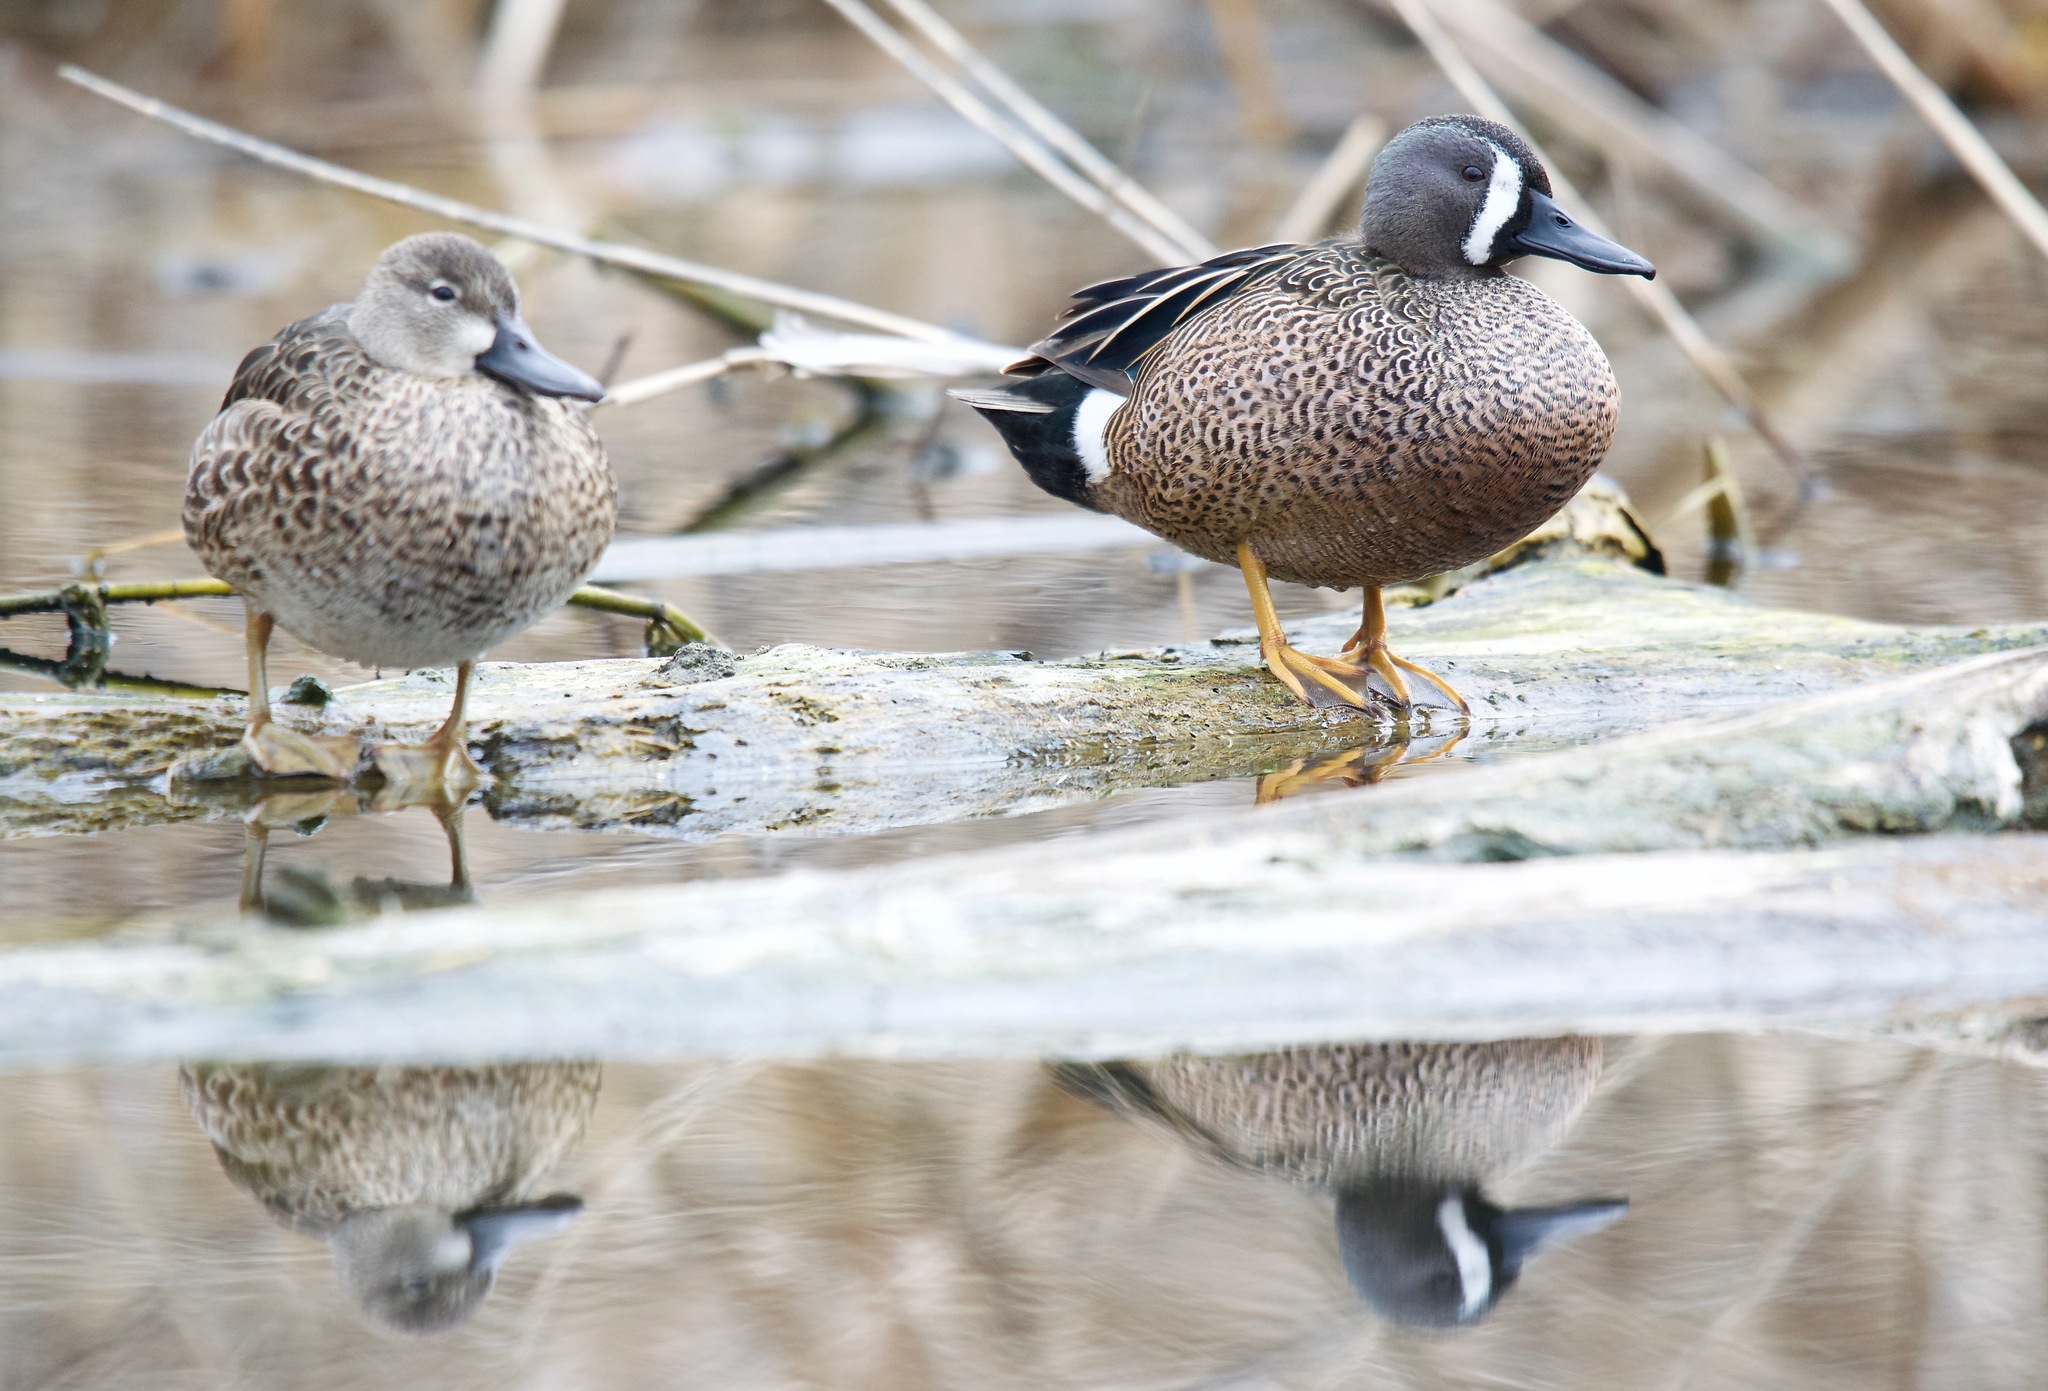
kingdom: Animalia
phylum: Chordata
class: Aves
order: Anseriformes
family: Anatidae
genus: Spatula
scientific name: Spatula discors
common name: Blue-winged teal
